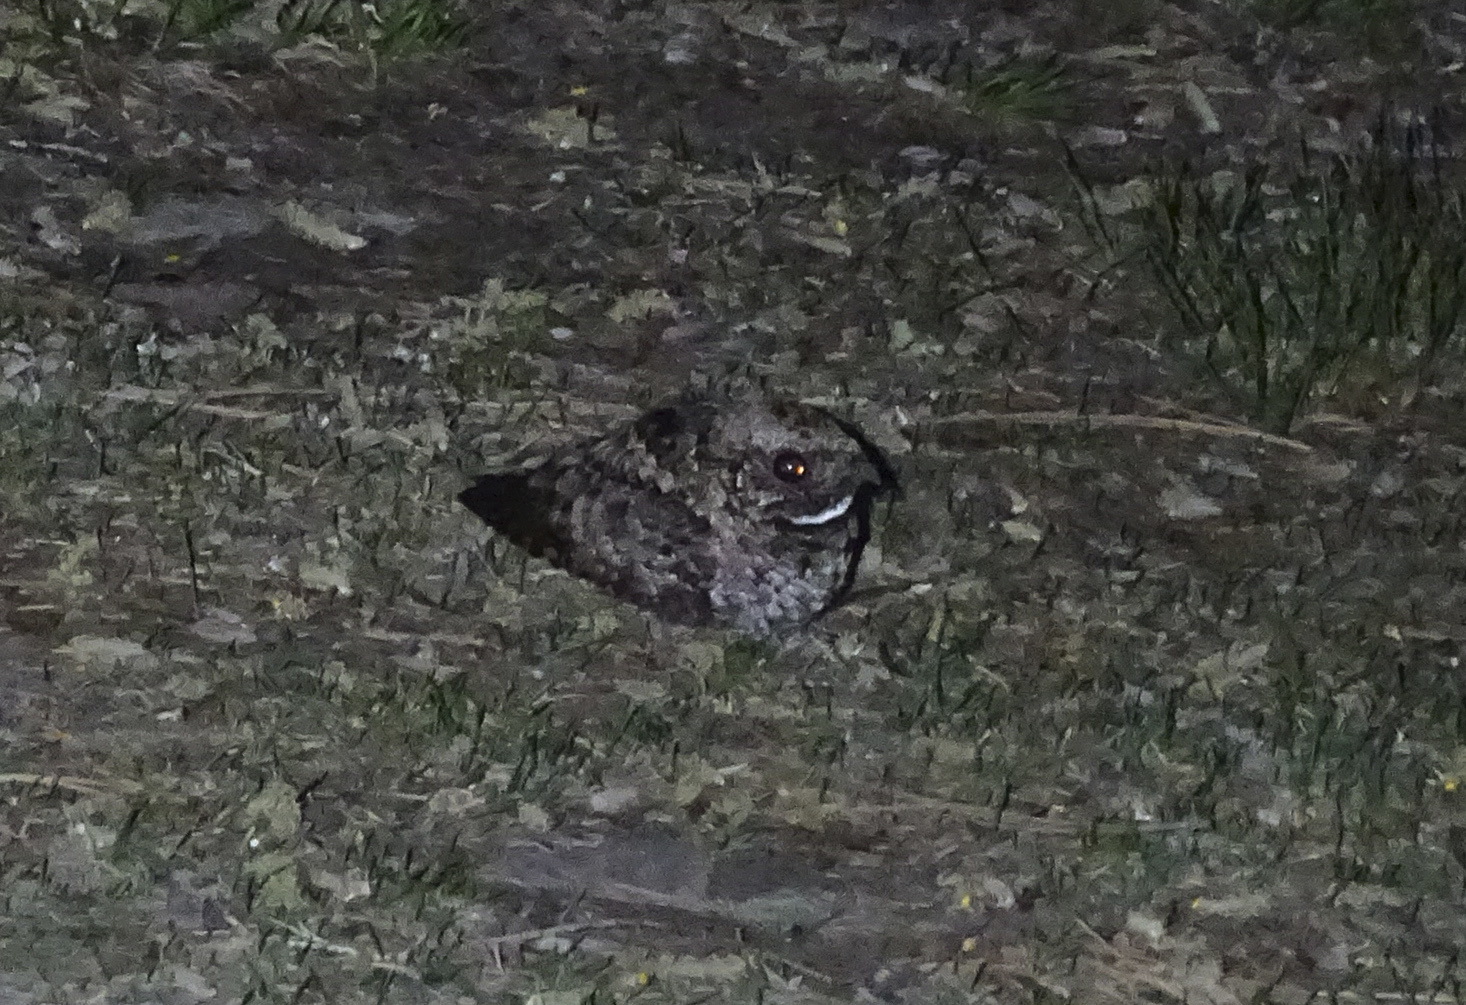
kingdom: Animalia
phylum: Chordata
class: Aves
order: Caprimulgiformes
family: Caprimulgidae
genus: Phalaenoptilus
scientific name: Phalaenoptilus nuttallii
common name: Common poorwill
